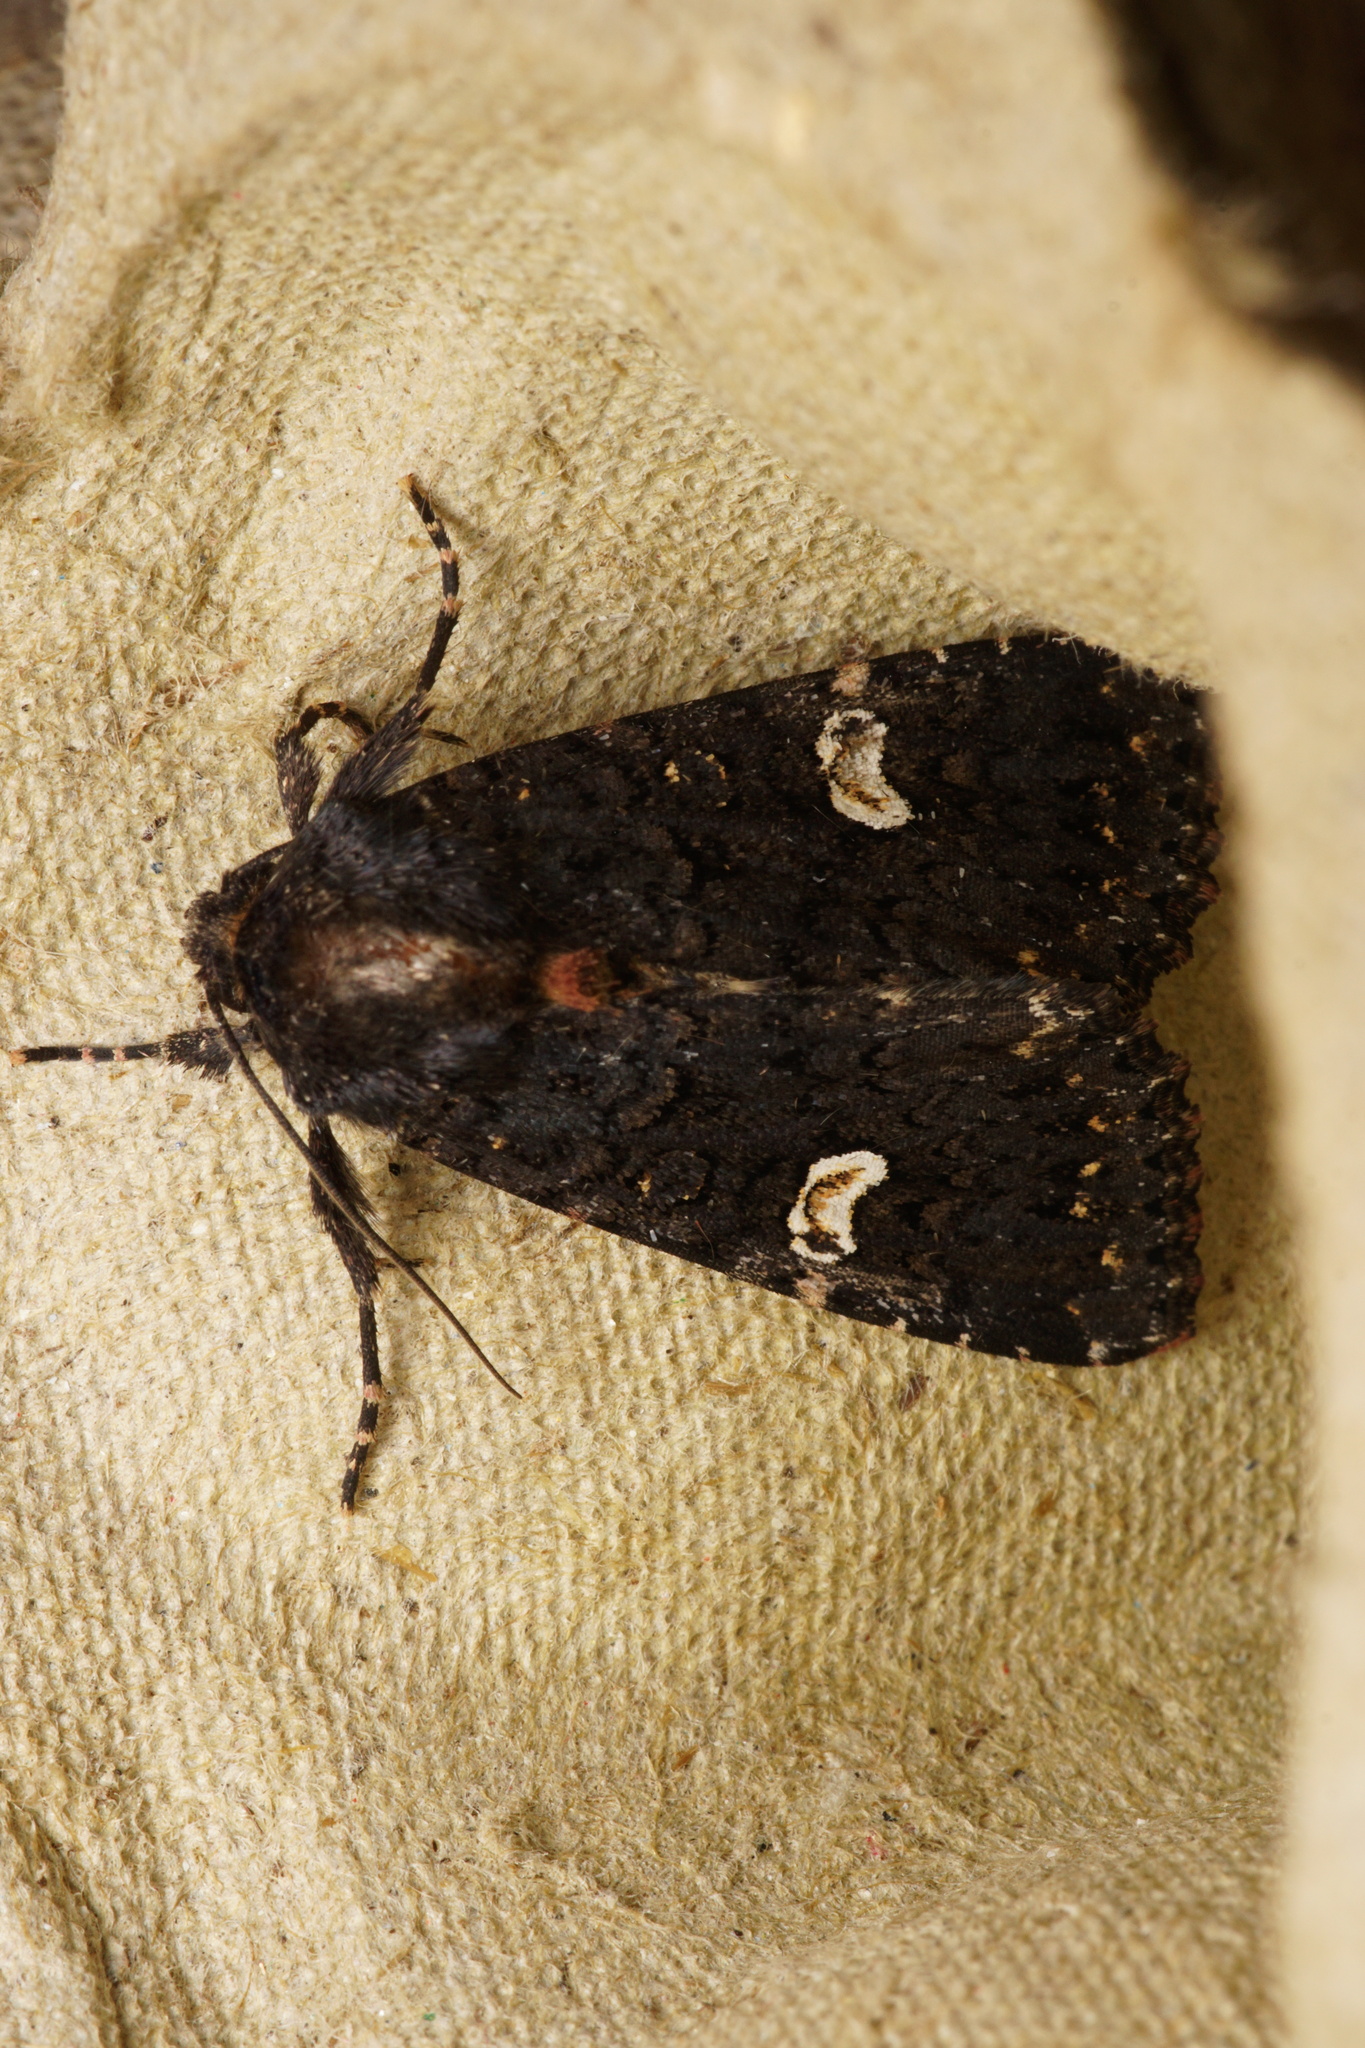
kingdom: Animalia
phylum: Arthropoda
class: Insecta
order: Lepidoptera
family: Noctuidae
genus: Melanchra
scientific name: Melanchra persicariae
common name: Dot moth
